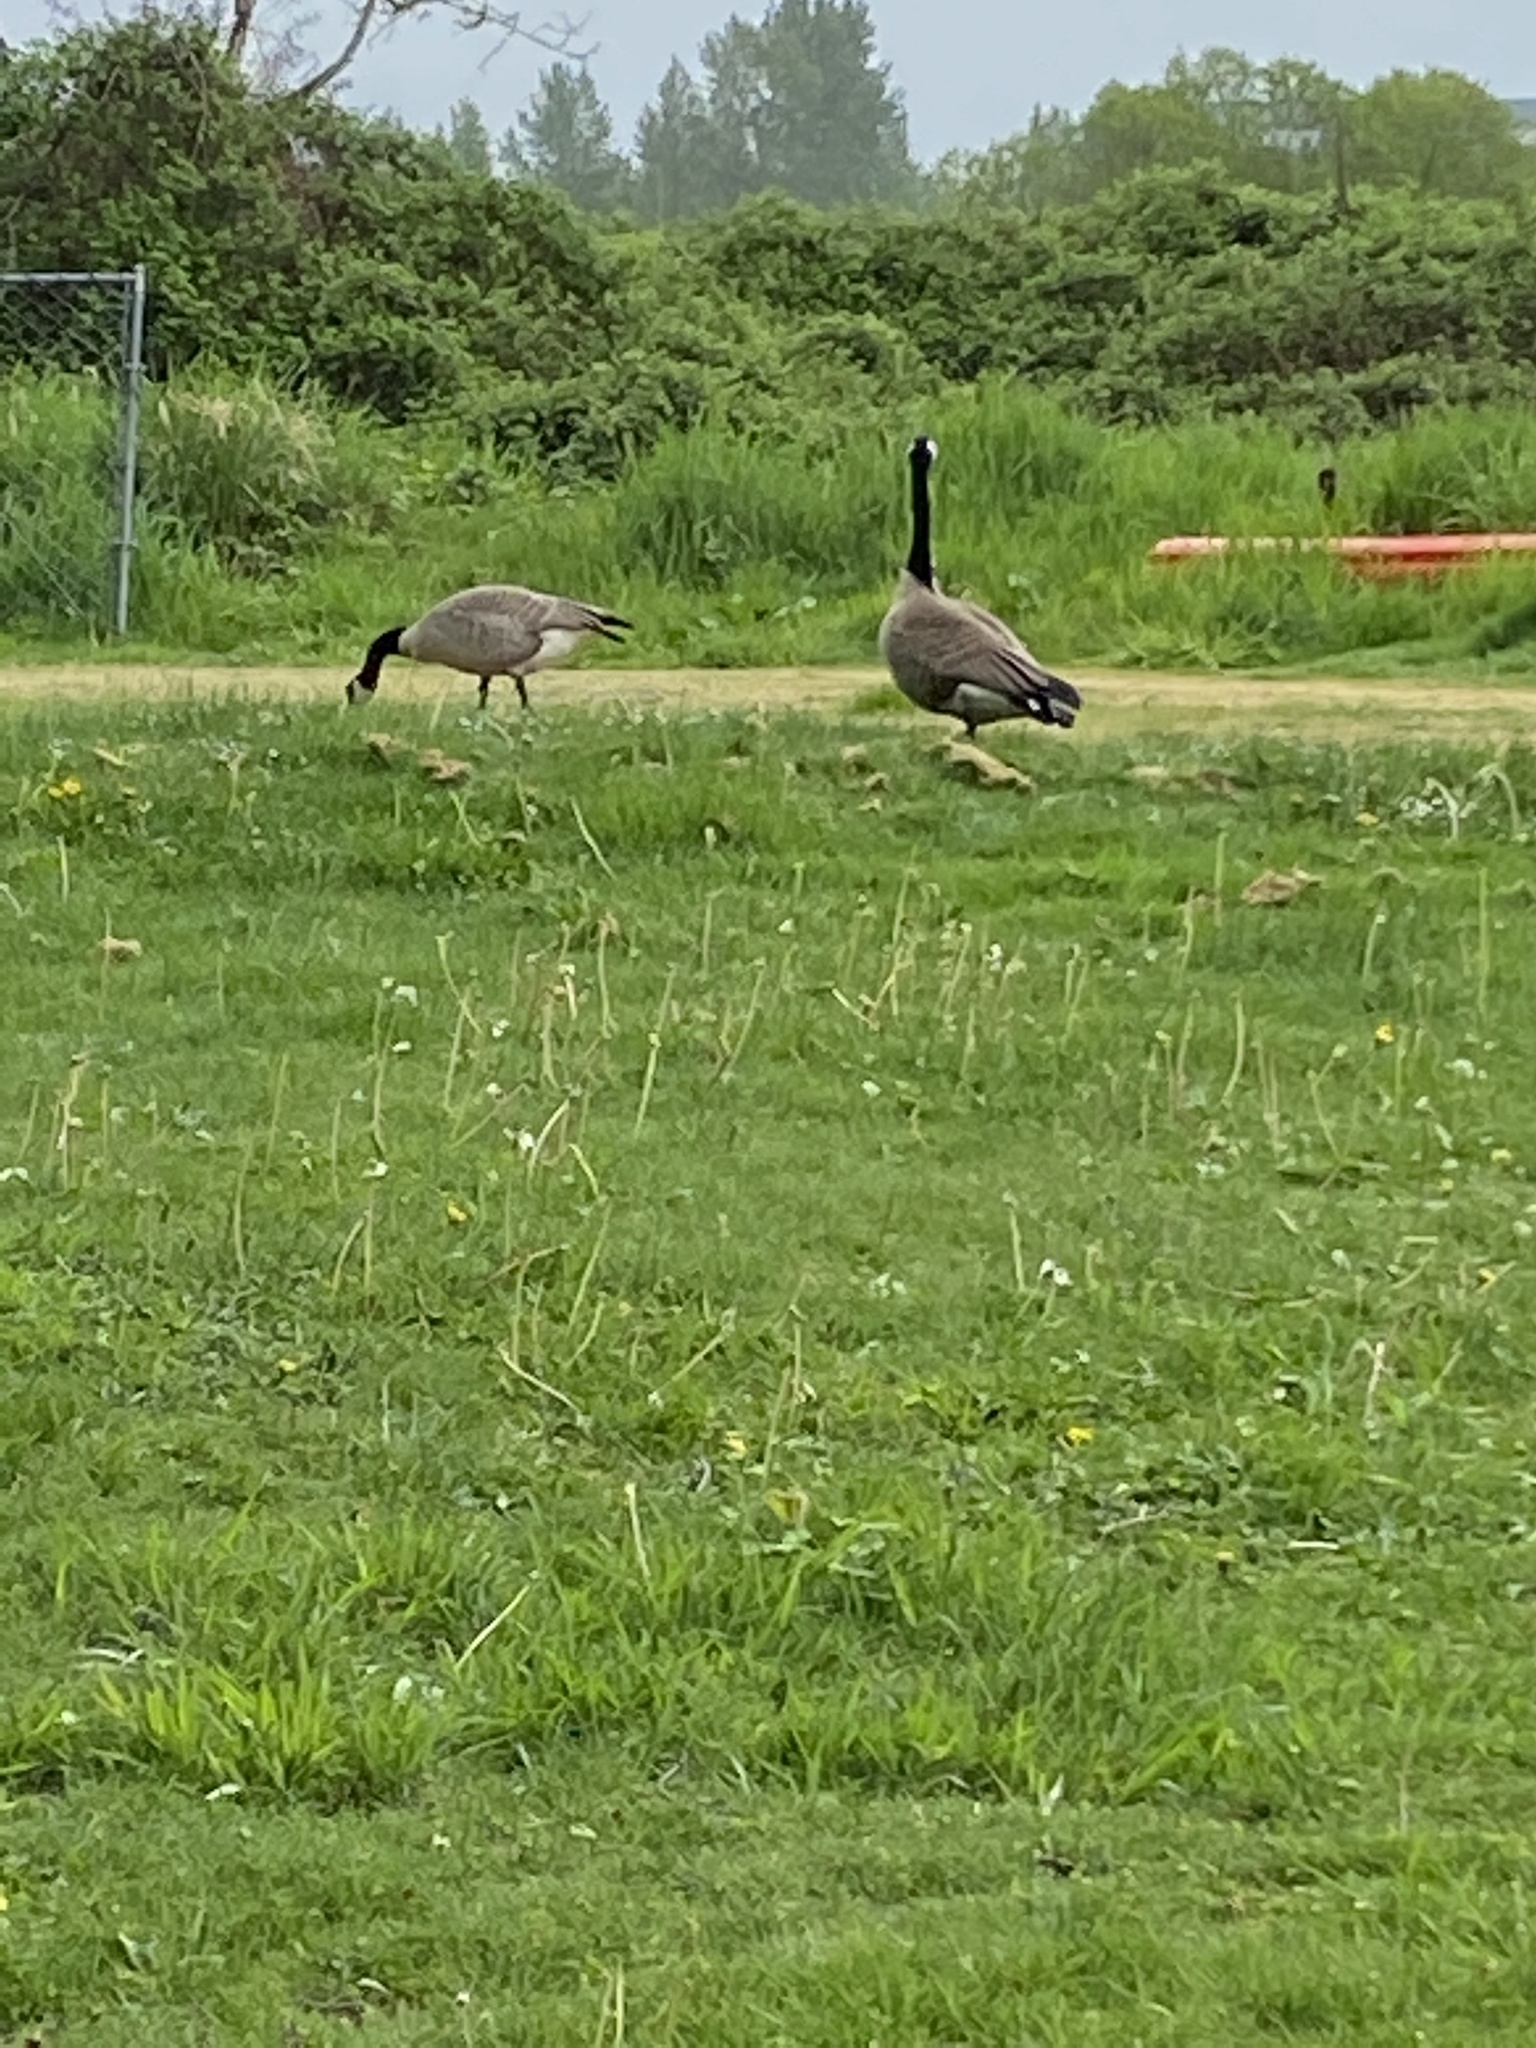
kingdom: Animalia
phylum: Chordata
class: Aves
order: Anseriformes
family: Anatidae
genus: Branta
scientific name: Branta canadensis
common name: Canada goose
